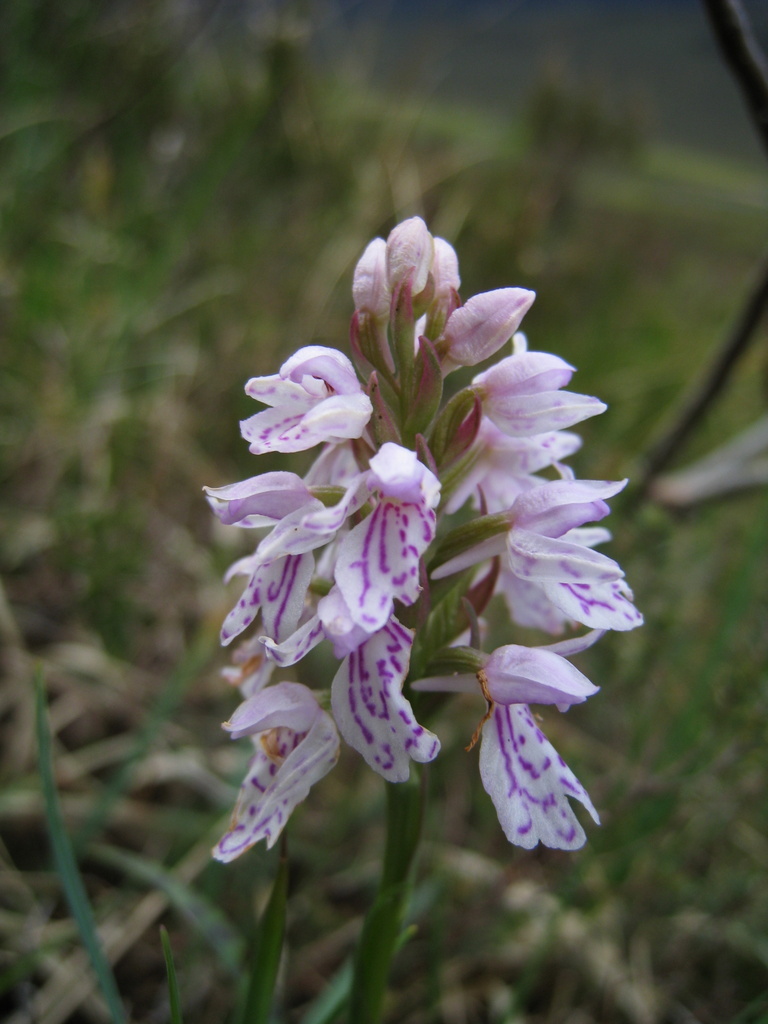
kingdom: Plantae
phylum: Tracheophyta
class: Liliopsida
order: Asparagales
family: Orchidaceae
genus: Dactylorhiza
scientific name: Dactylorhiza maculata
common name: Heath spotted-orchid
